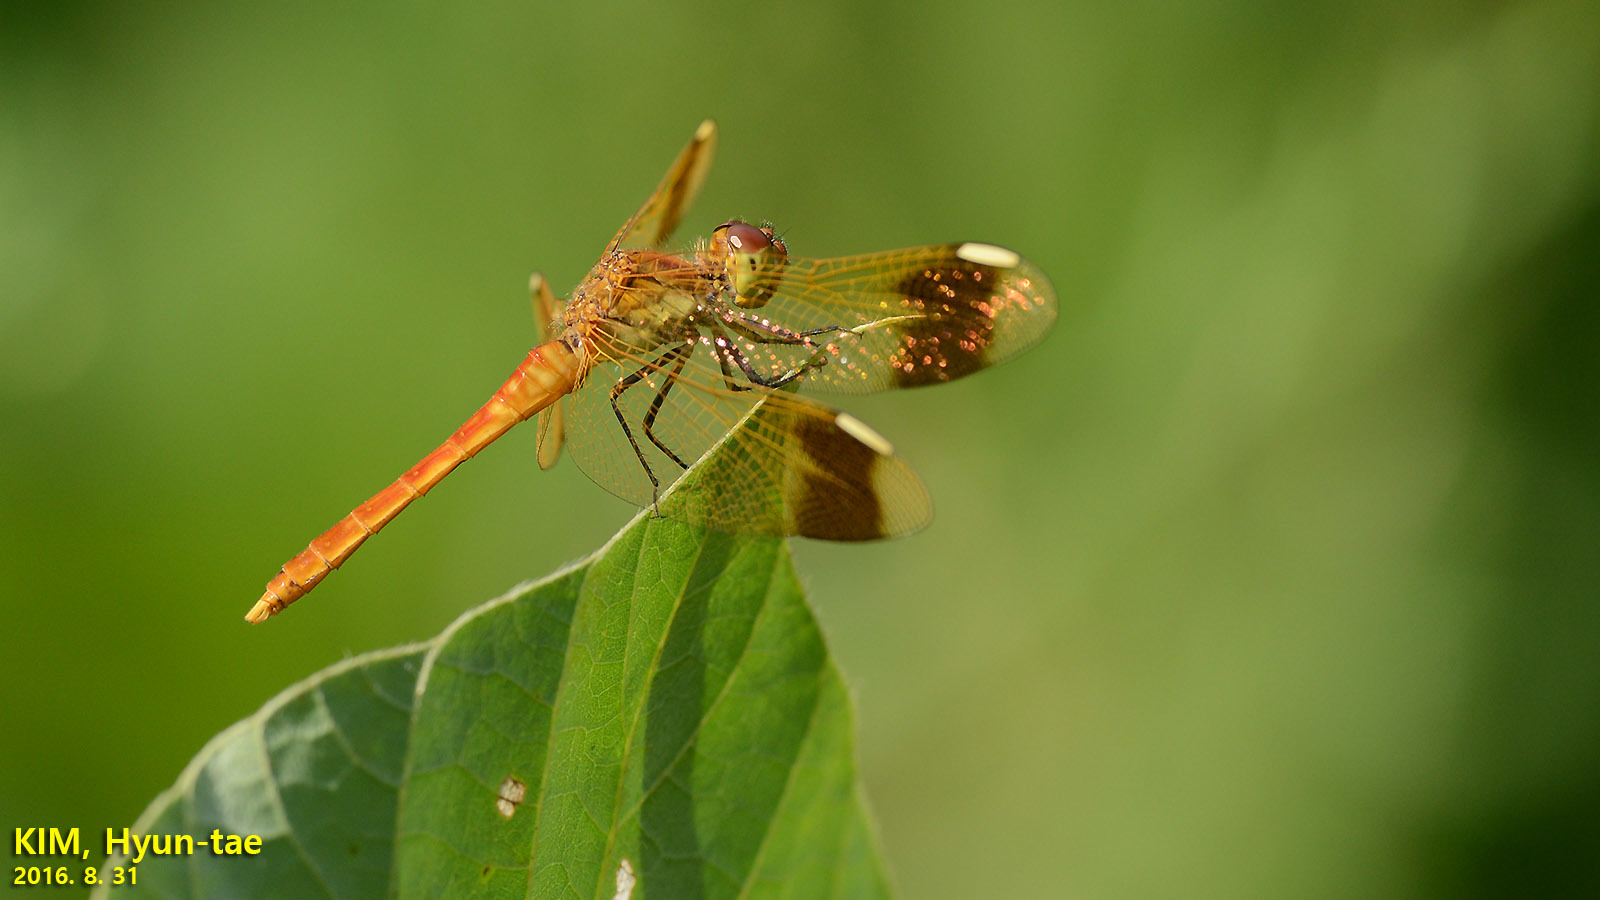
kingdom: Animalia
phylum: Arthropoda
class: Insecta
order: Odonata
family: Libellulidae
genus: Sympetrum
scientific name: Sympetrum pedemontanum
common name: Banded darter
